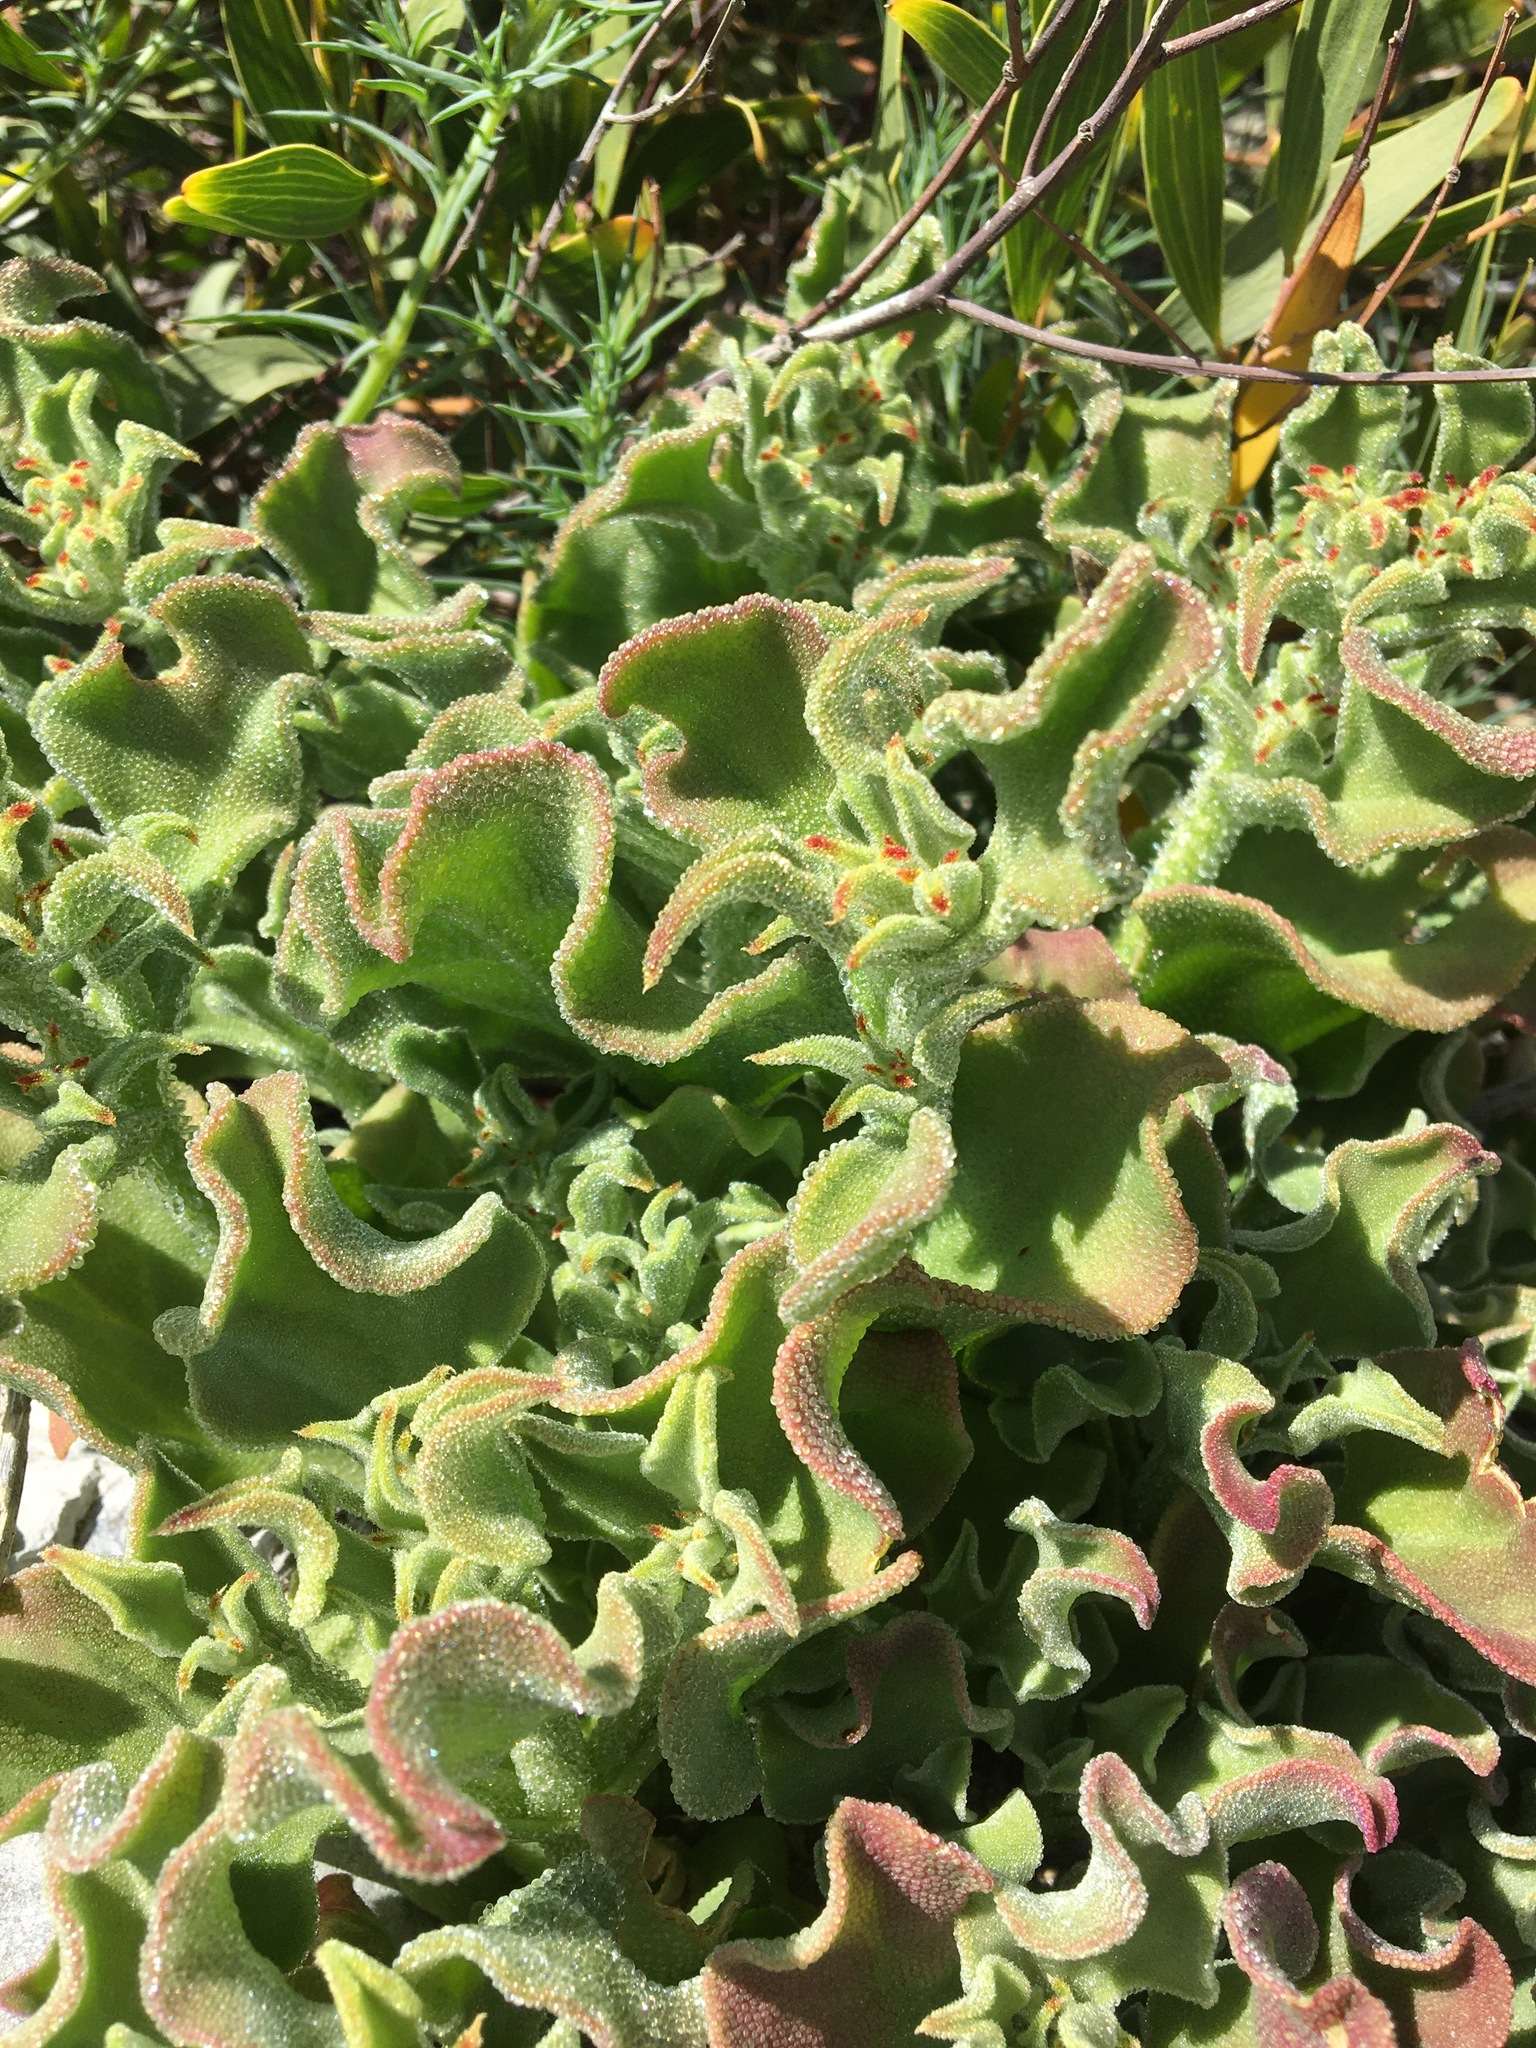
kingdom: Plantae
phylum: Tracheophyta
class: Magnoliopsida
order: Caryophyllales
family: Aizoaceae
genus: Mesembryanthemum
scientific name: Mesembryanthemum crystallinum
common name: Common iceplant
